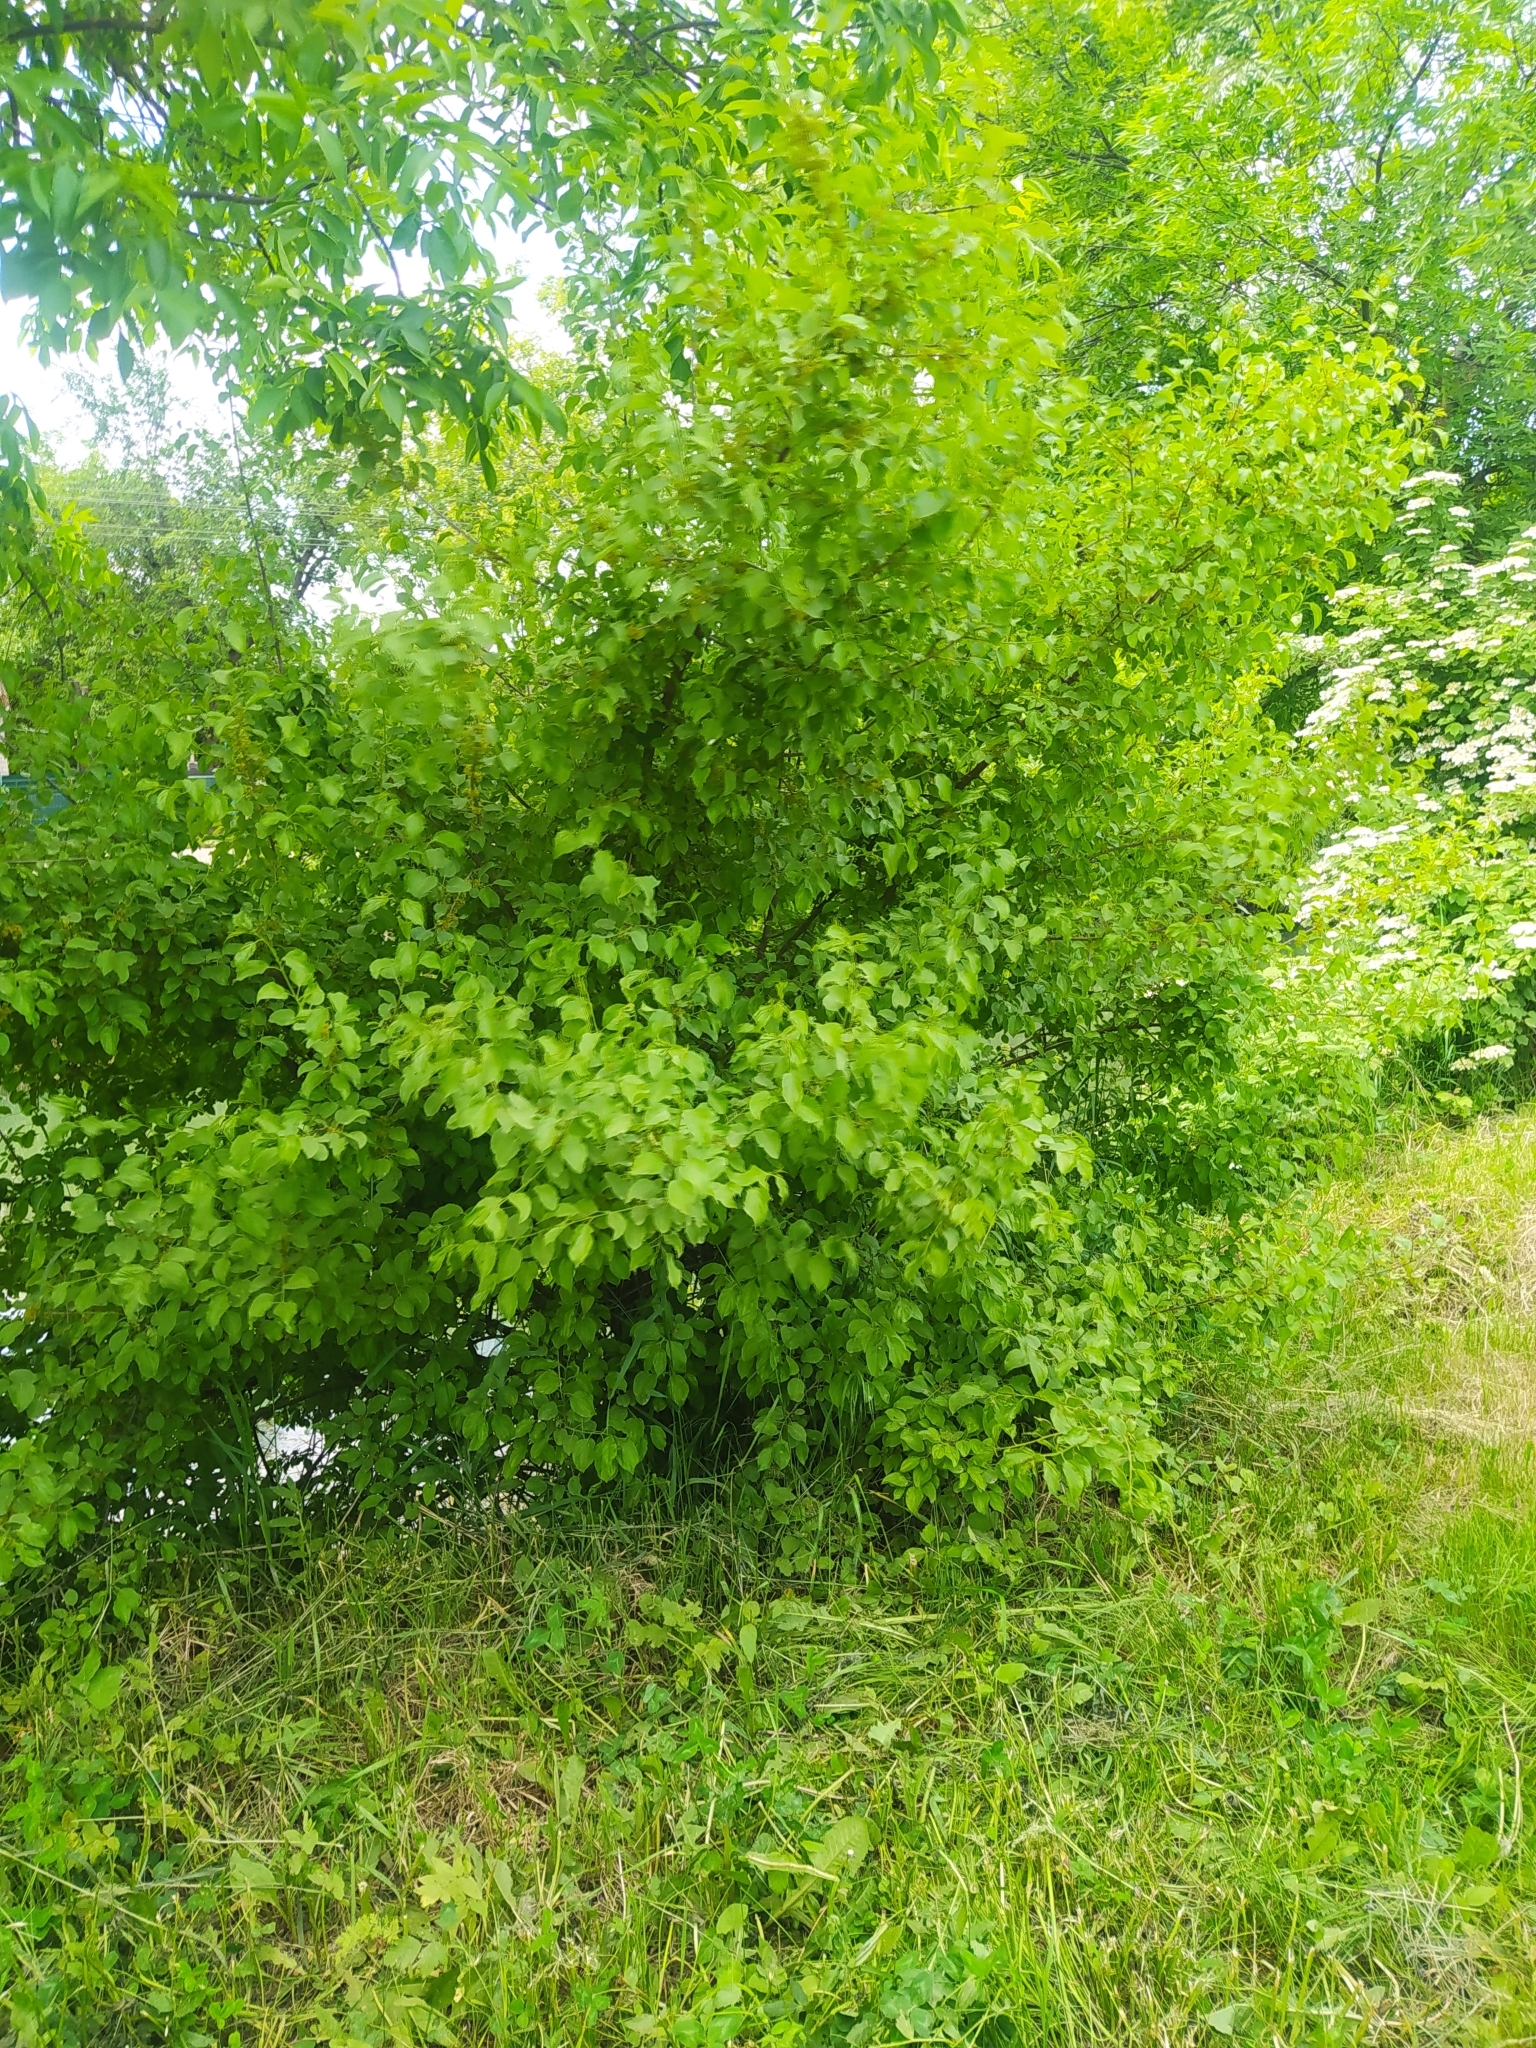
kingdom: Plantae
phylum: Tracheophyta
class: Magnoliopsida
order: Rosales
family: Rhamnaceae
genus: Rhamnus
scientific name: Rhamnus cathartica
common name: Common buckthorn
